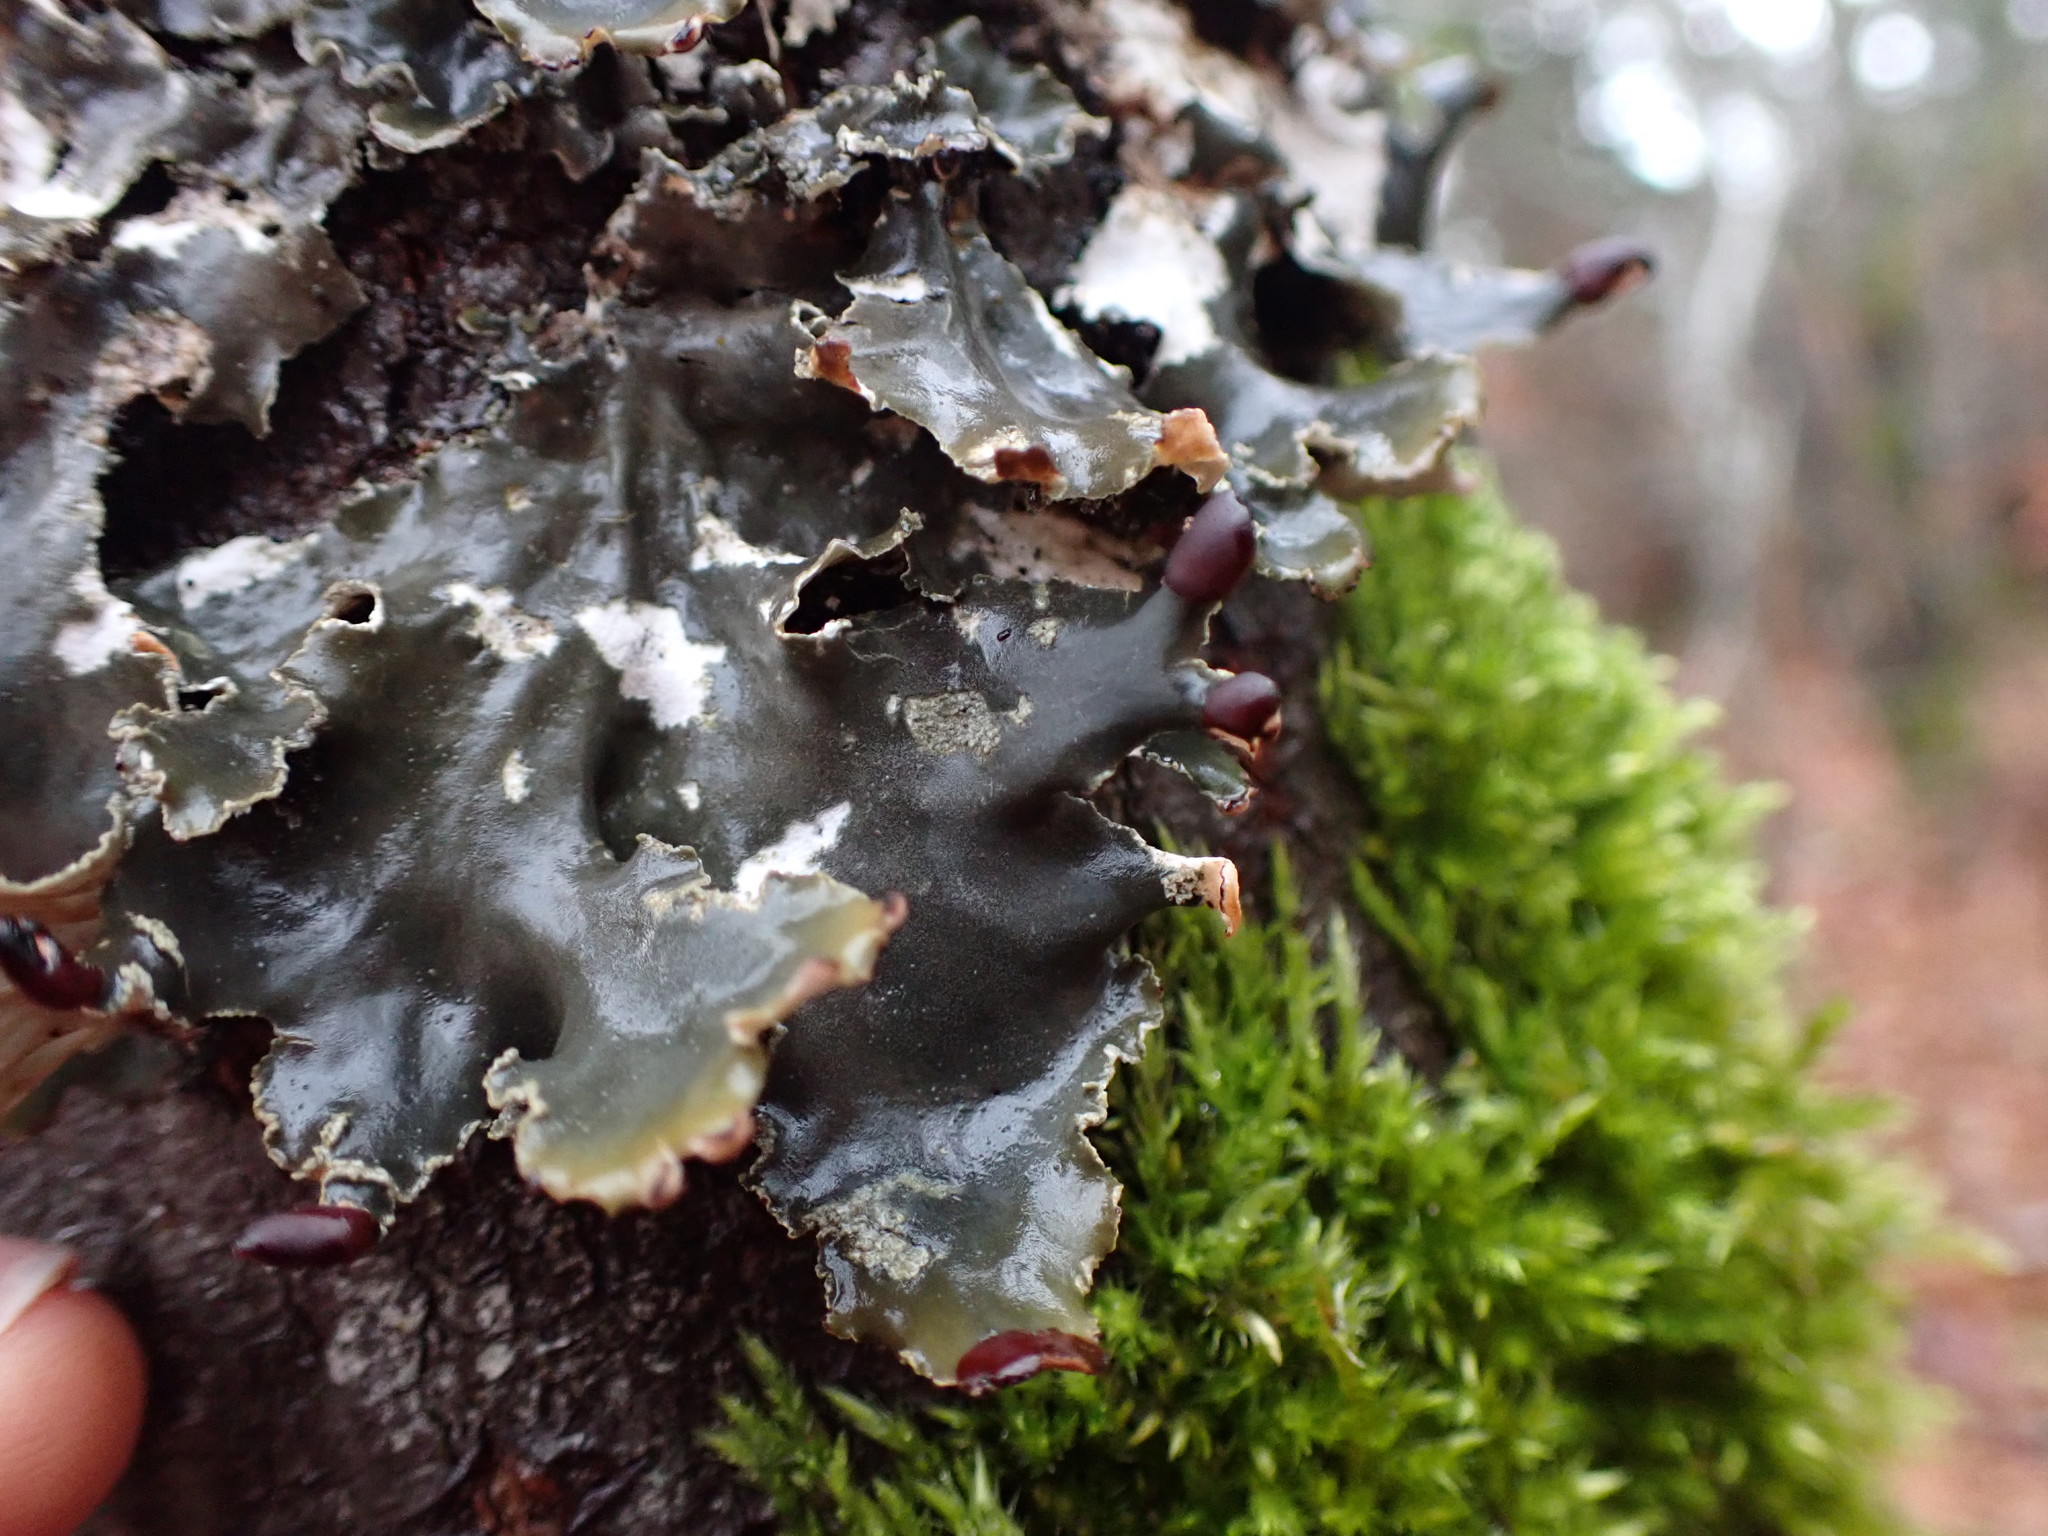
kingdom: Fungi
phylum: Ascomycota
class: Lecanoromycetes
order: Peltigerales
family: Peltigeraceae
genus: Peltigera
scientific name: Peltigera collina
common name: Gritty tree pelt lichen
